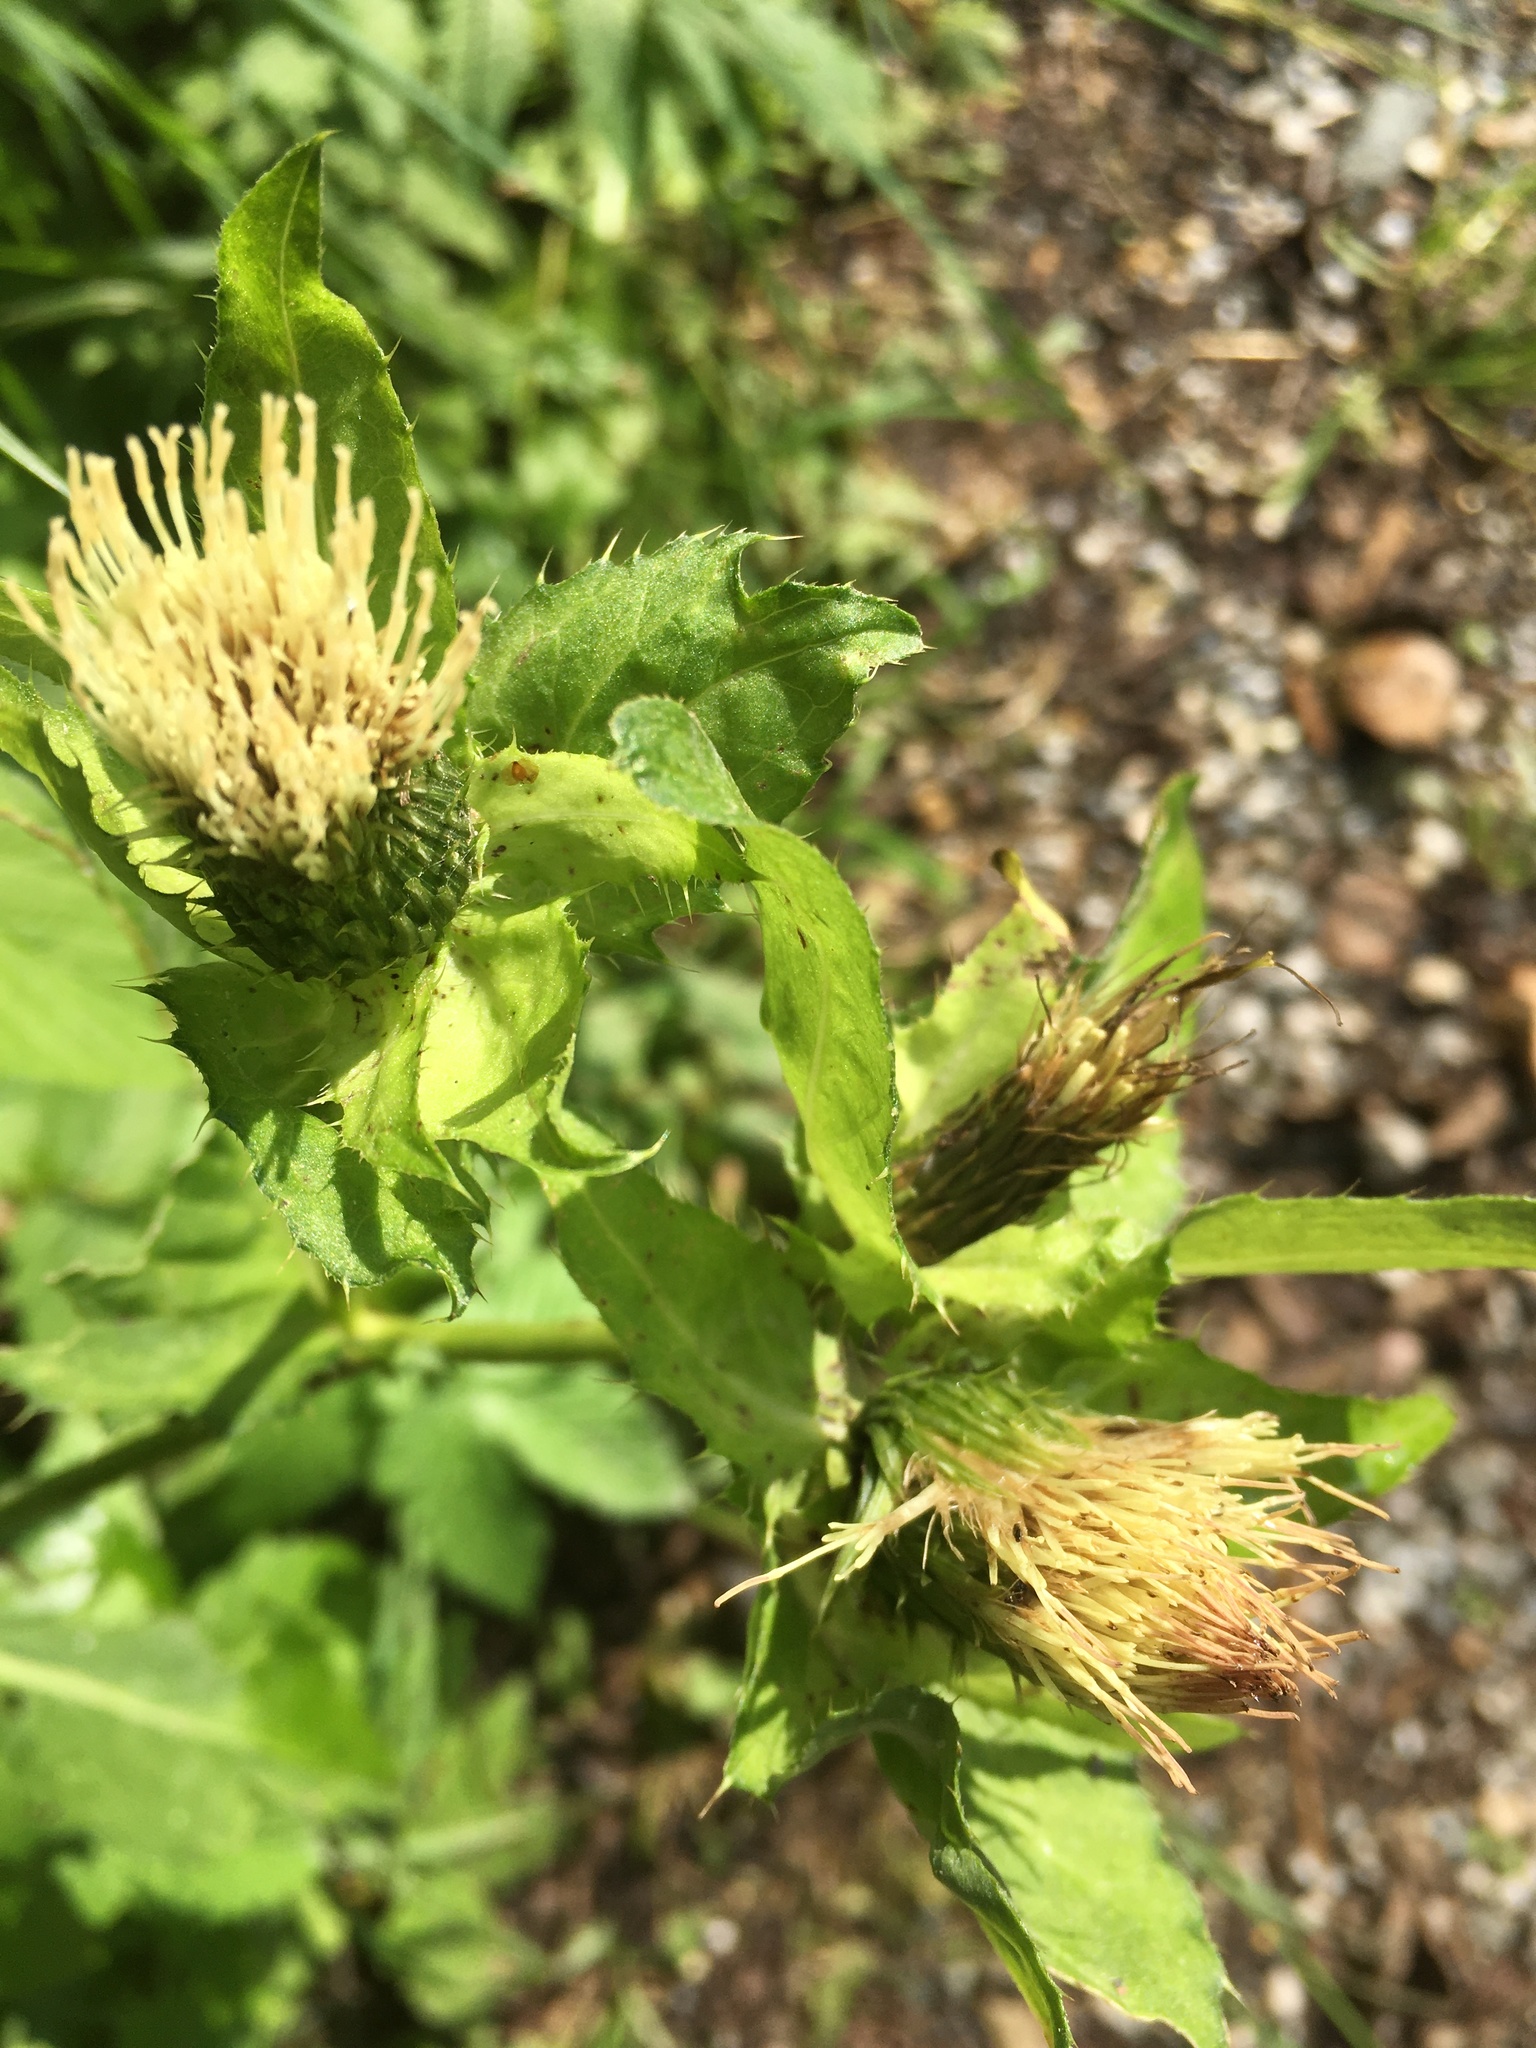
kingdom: Plantae
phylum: Tracheophyta
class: Magnoliopsida
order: Asterales
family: Asteraceae
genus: Cirsium
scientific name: Cirsium oleraceum
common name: Cabbage thistle
